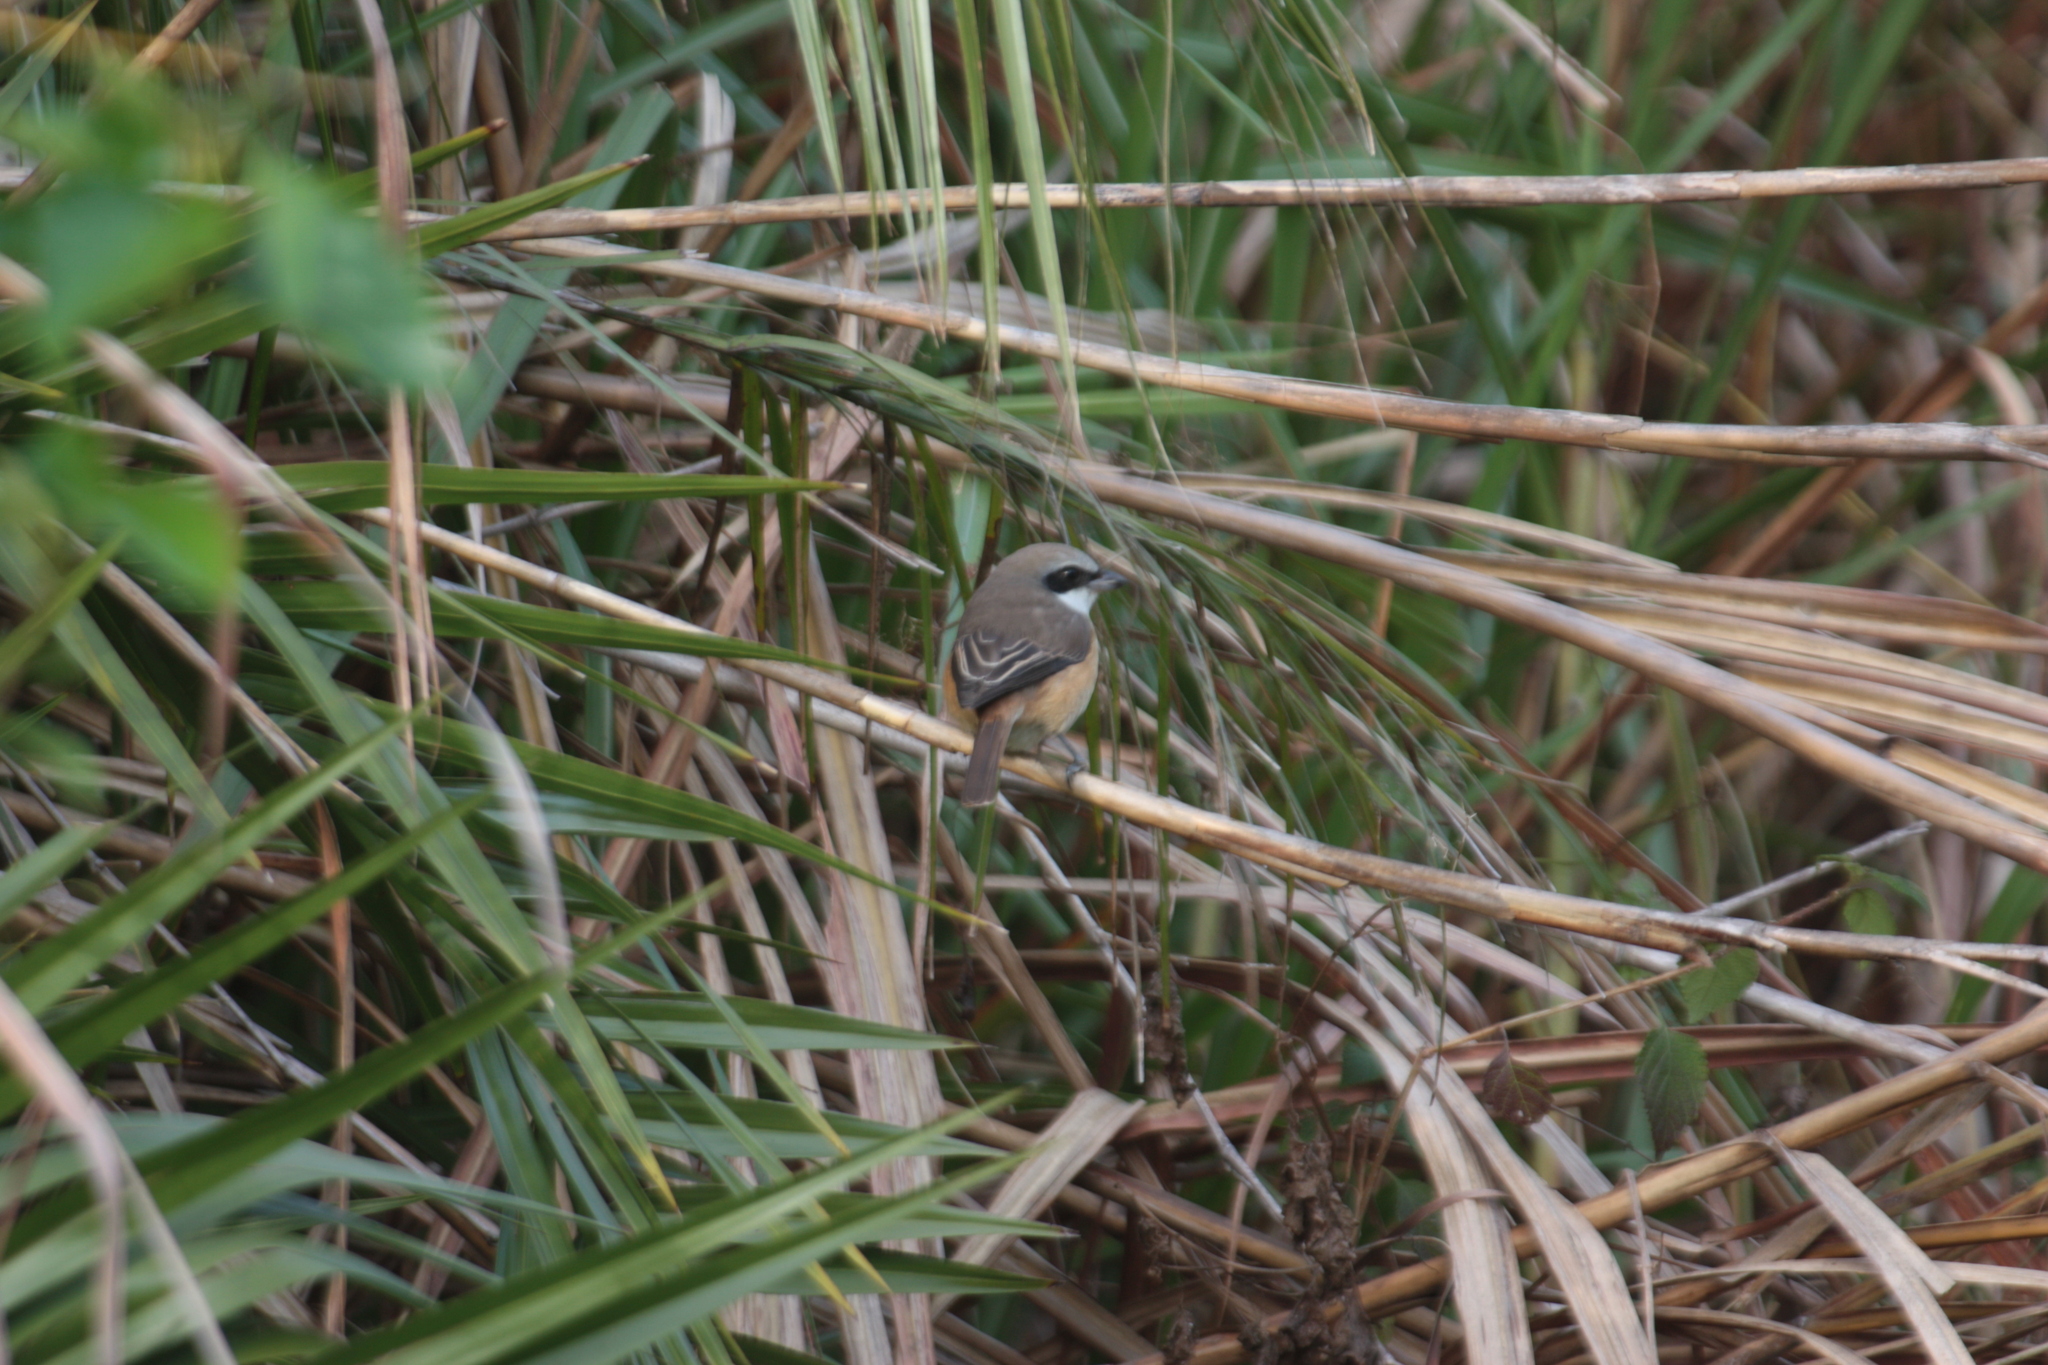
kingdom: Animalia
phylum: Chordata
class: Aves
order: Passeriformes
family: Laniidae
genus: Lanius
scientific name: Lanius cristatus
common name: Brown shrike
